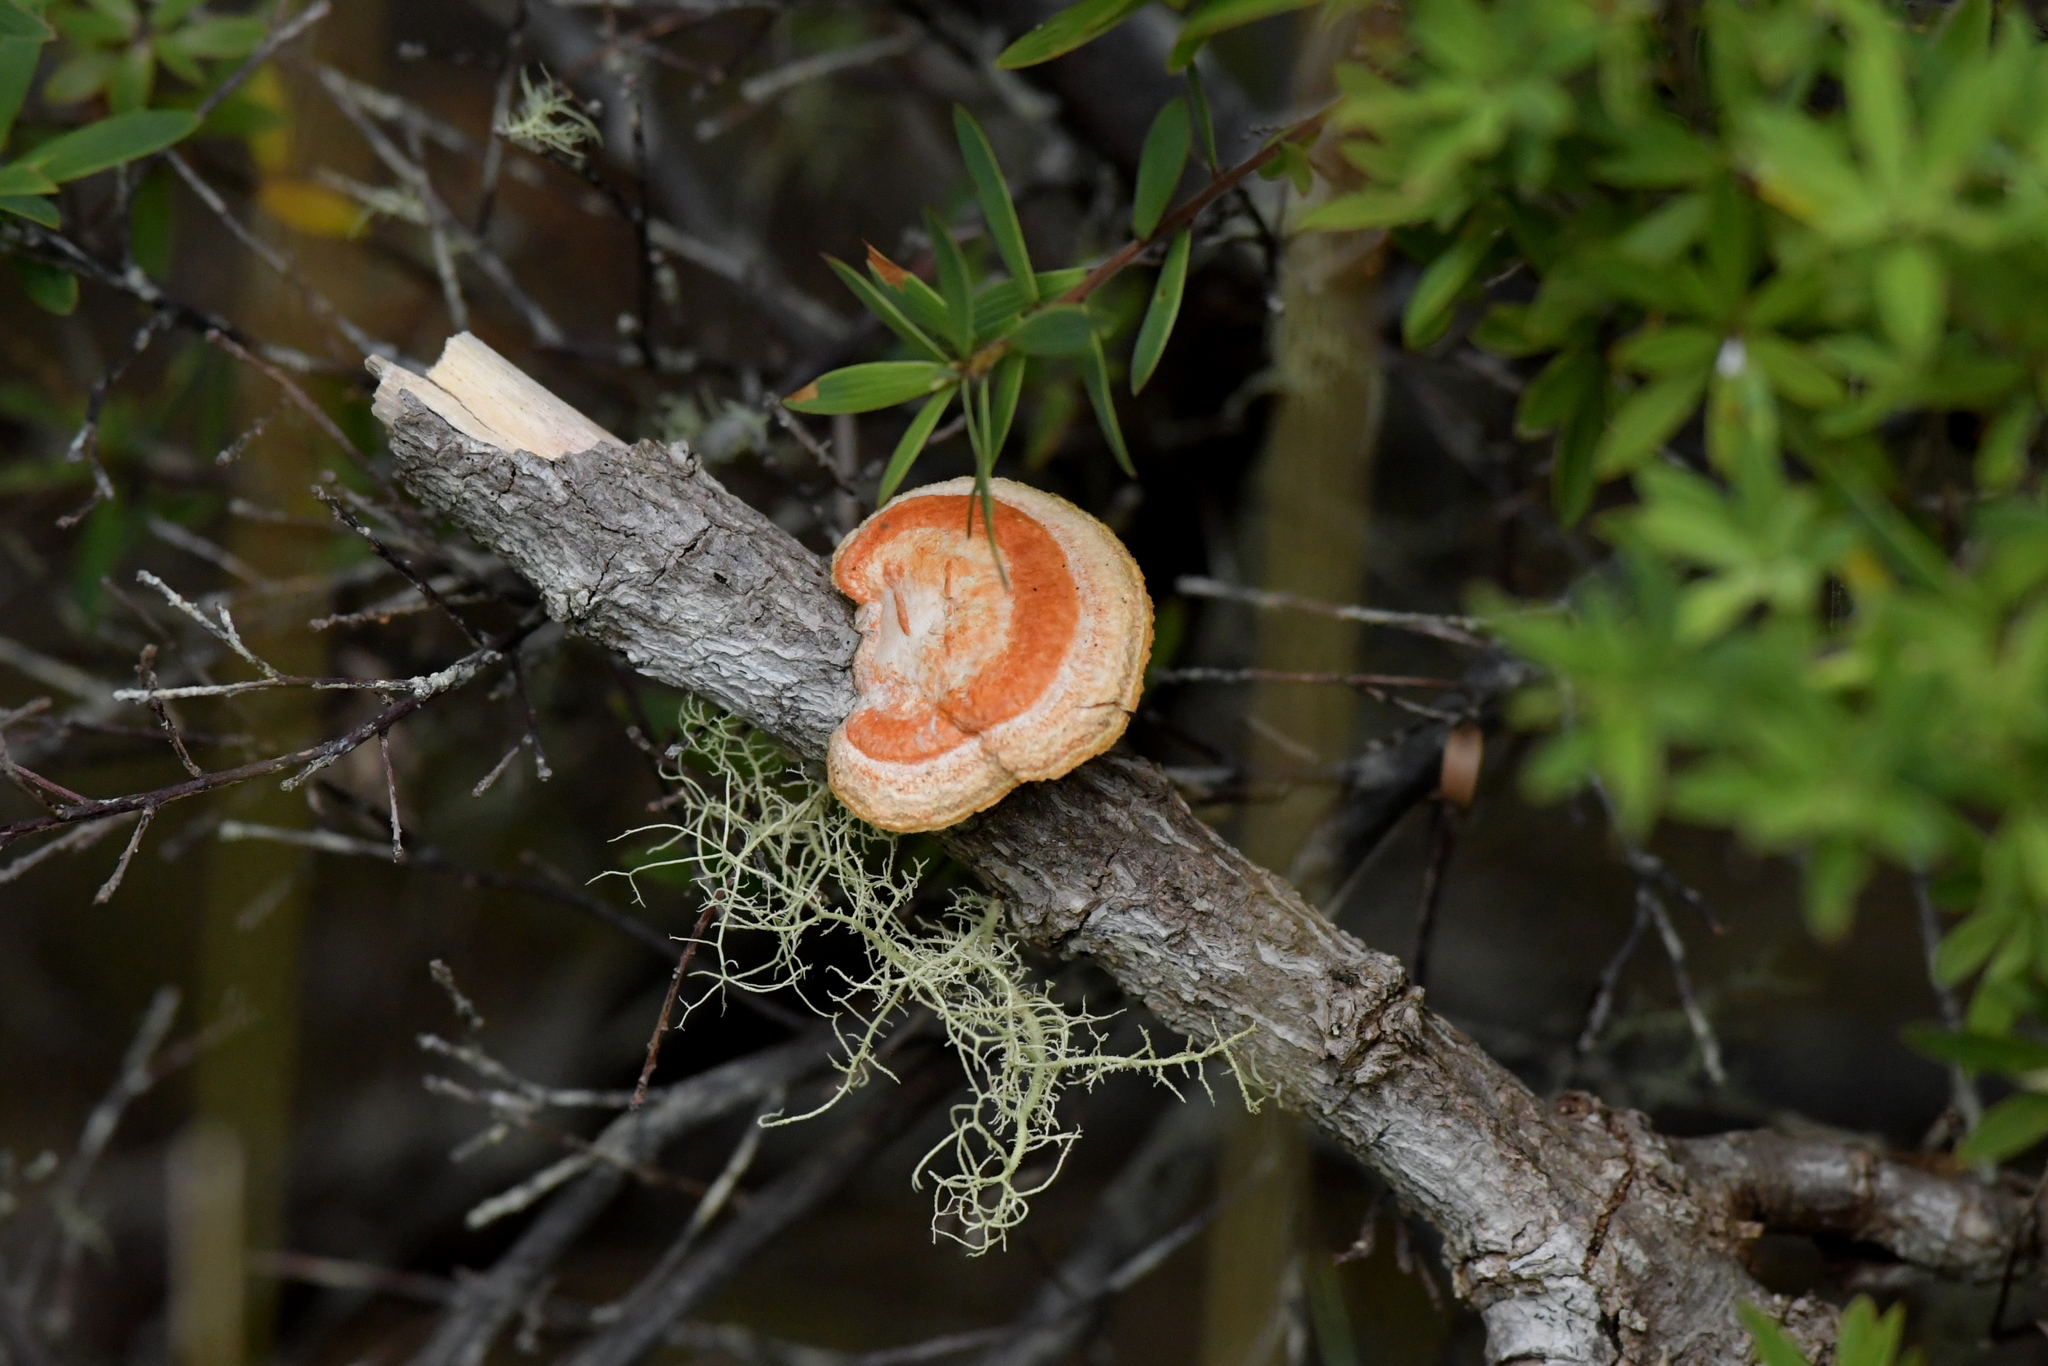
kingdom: Fungi
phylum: Basidiomycota
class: Agaricomycetes
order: Polyporales
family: Polyporaceae
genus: Trametes
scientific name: Trametes coccinea
